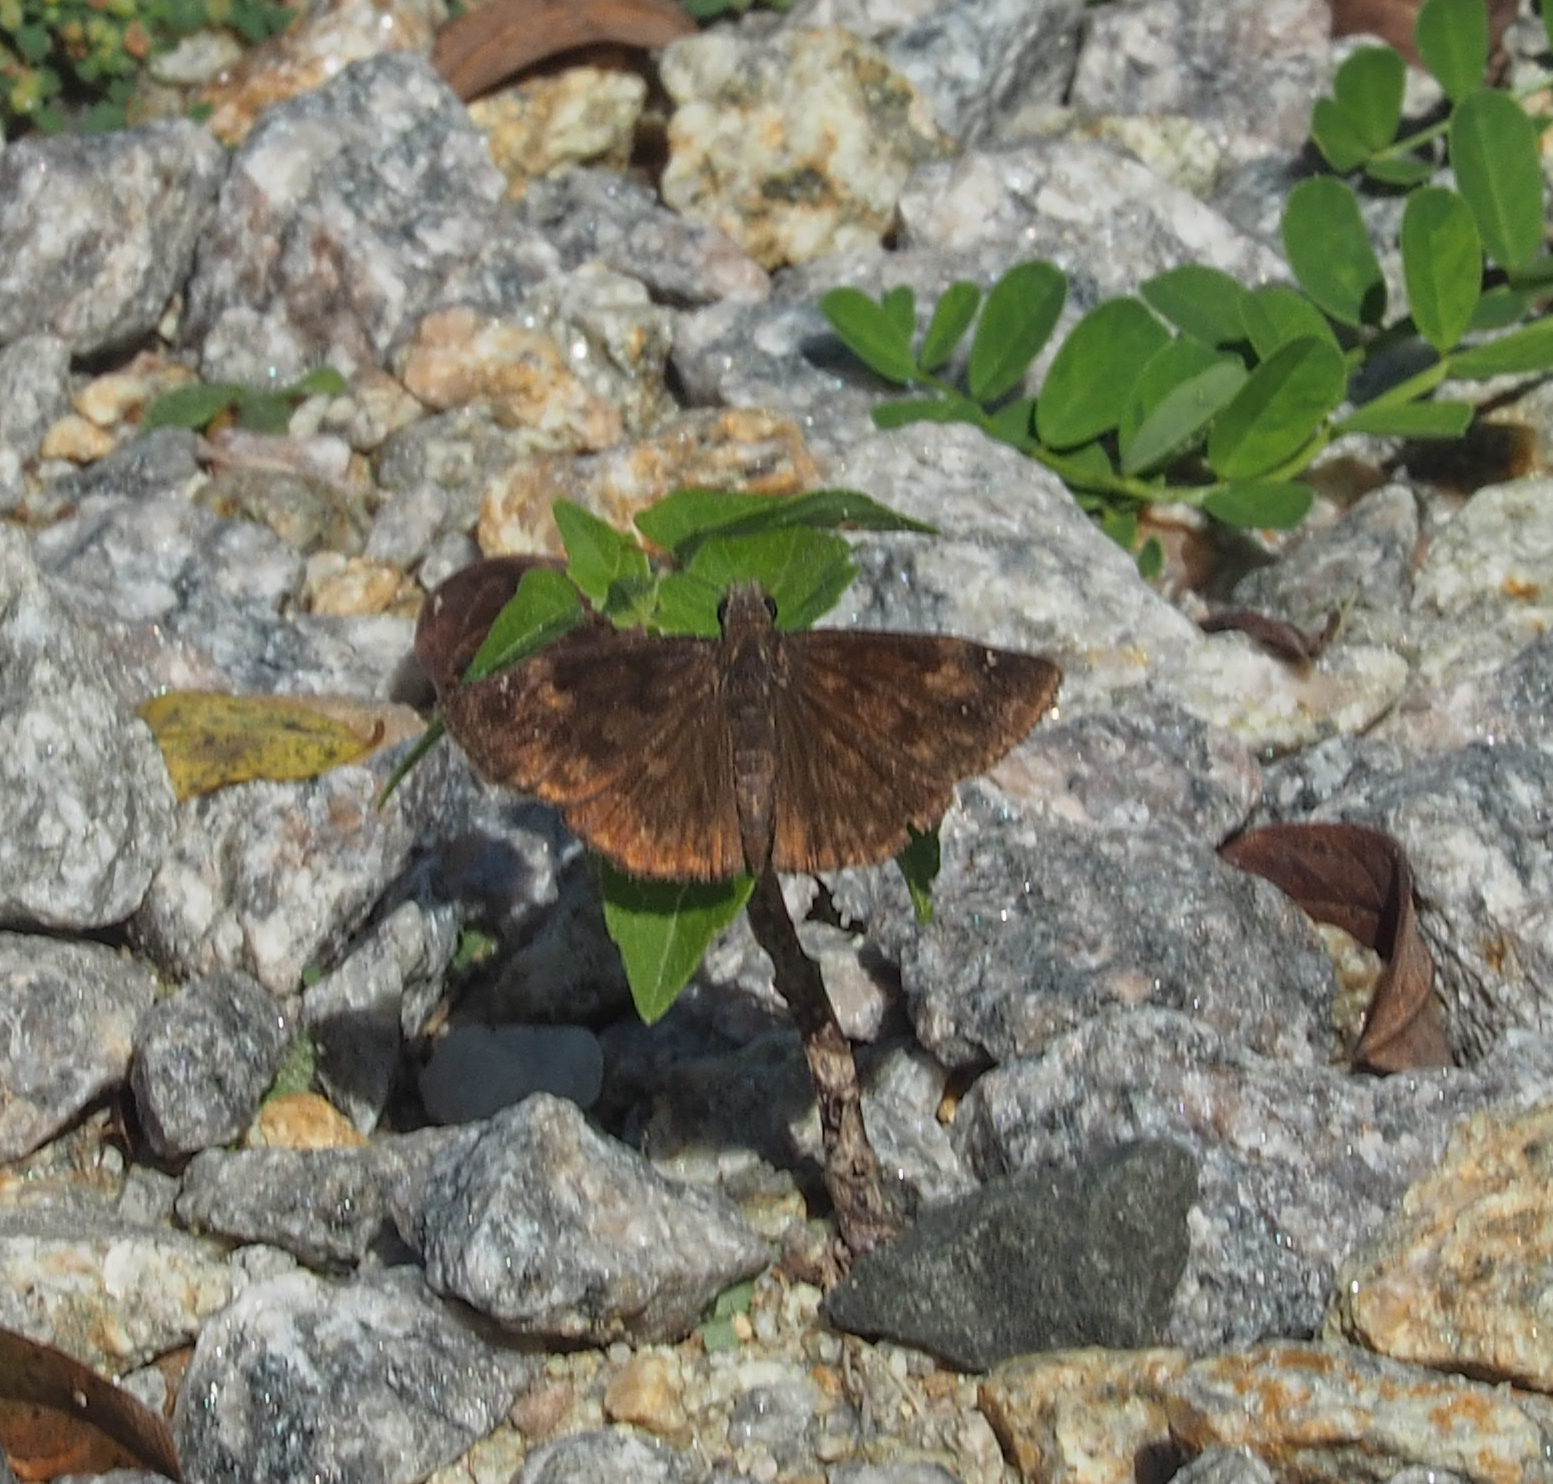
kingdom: Animalia
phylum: Arthropoda
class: Insecta
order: Lepidoptera
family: Hesperiidae
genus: Erynnis
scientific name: Erynnis baptisiae
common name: Wild indigo duskywing
